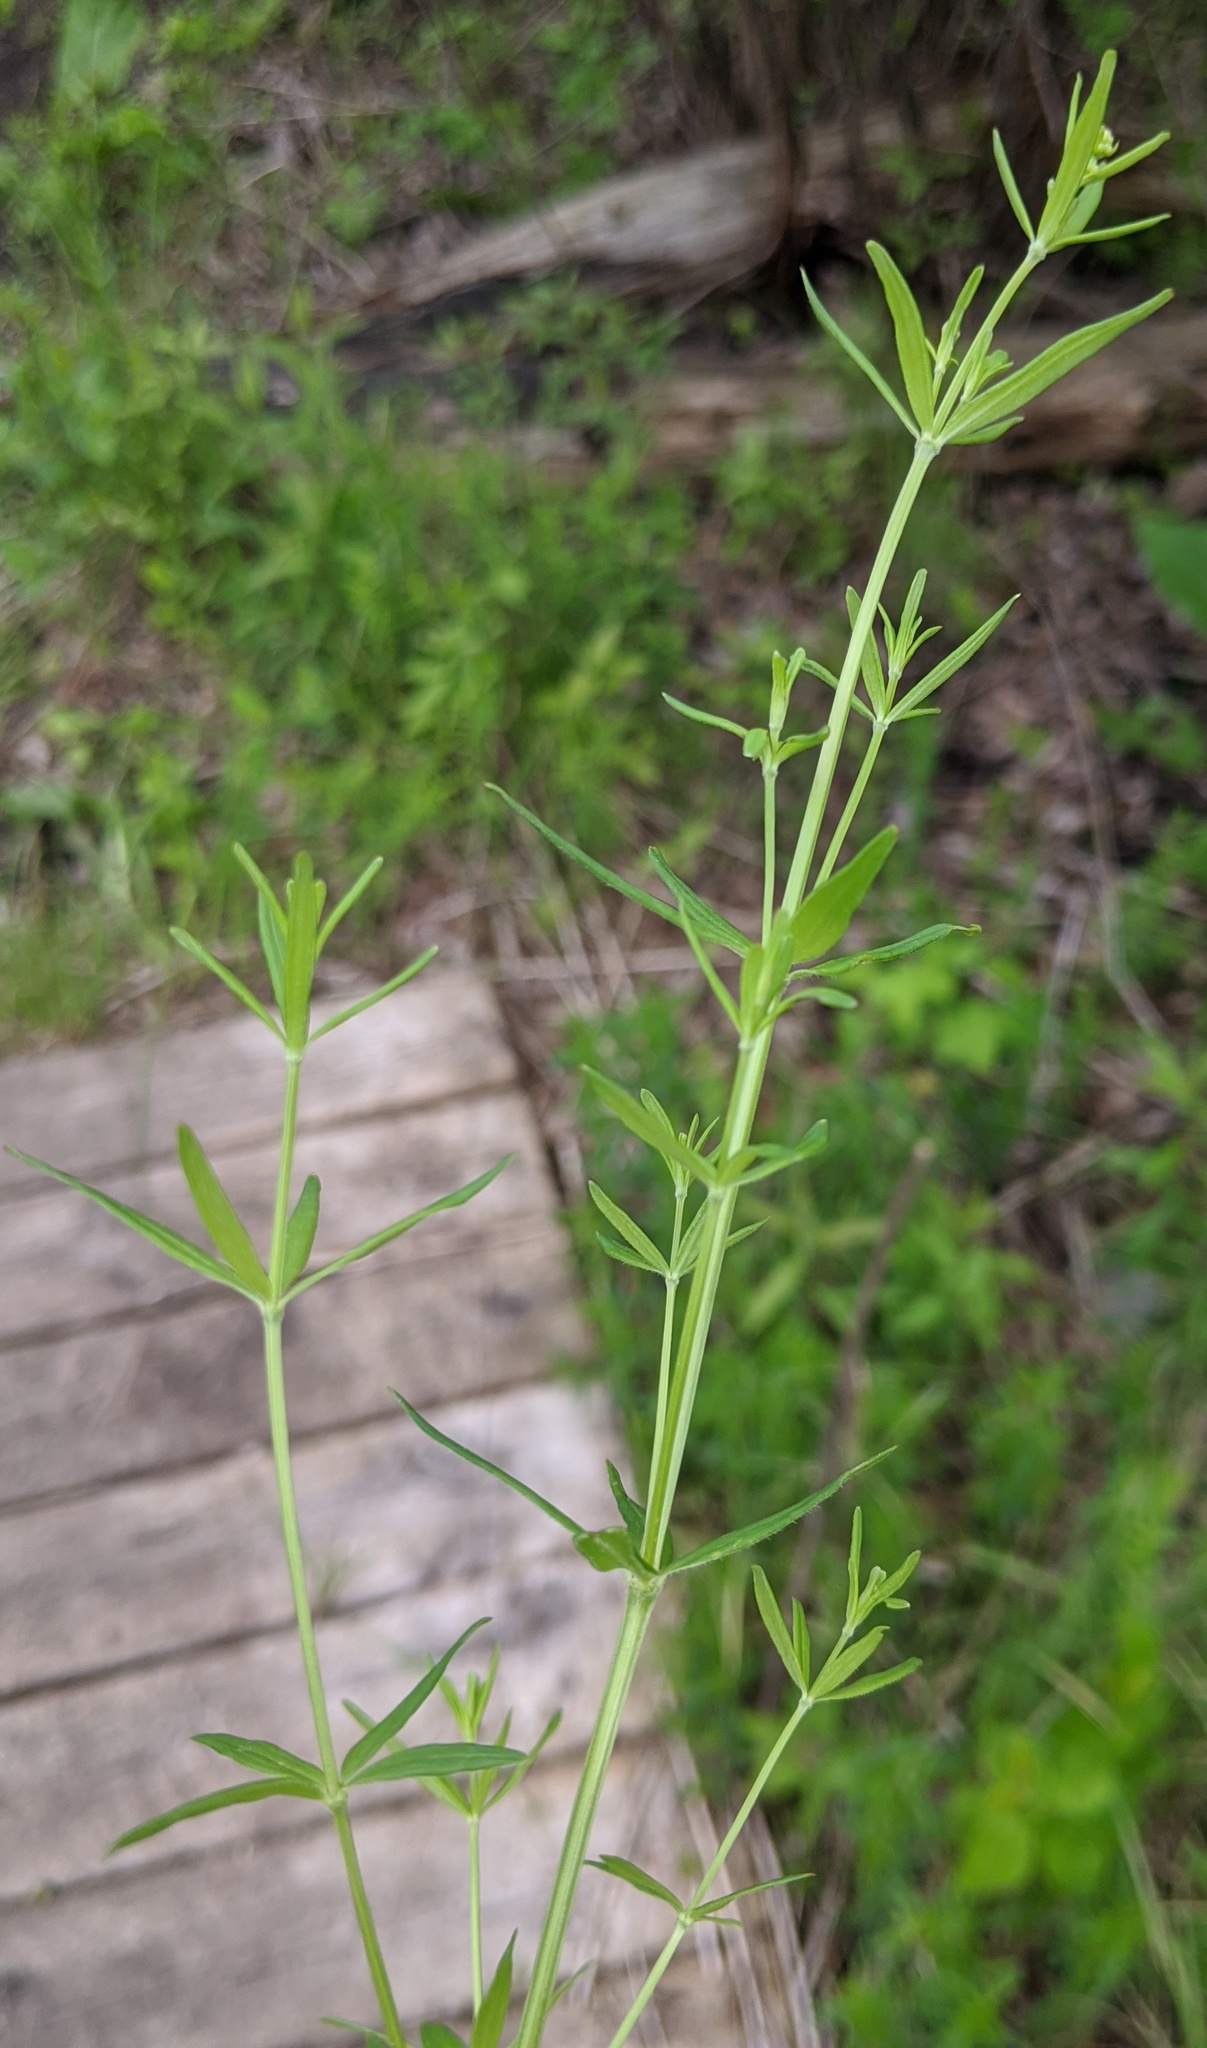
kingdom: Plantae
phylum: Tracheophyta
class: Magnoliopsida
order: Gentianales
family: Rubiaceae
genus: Galium
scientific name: Galium boreale
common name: Northern bedstraw
